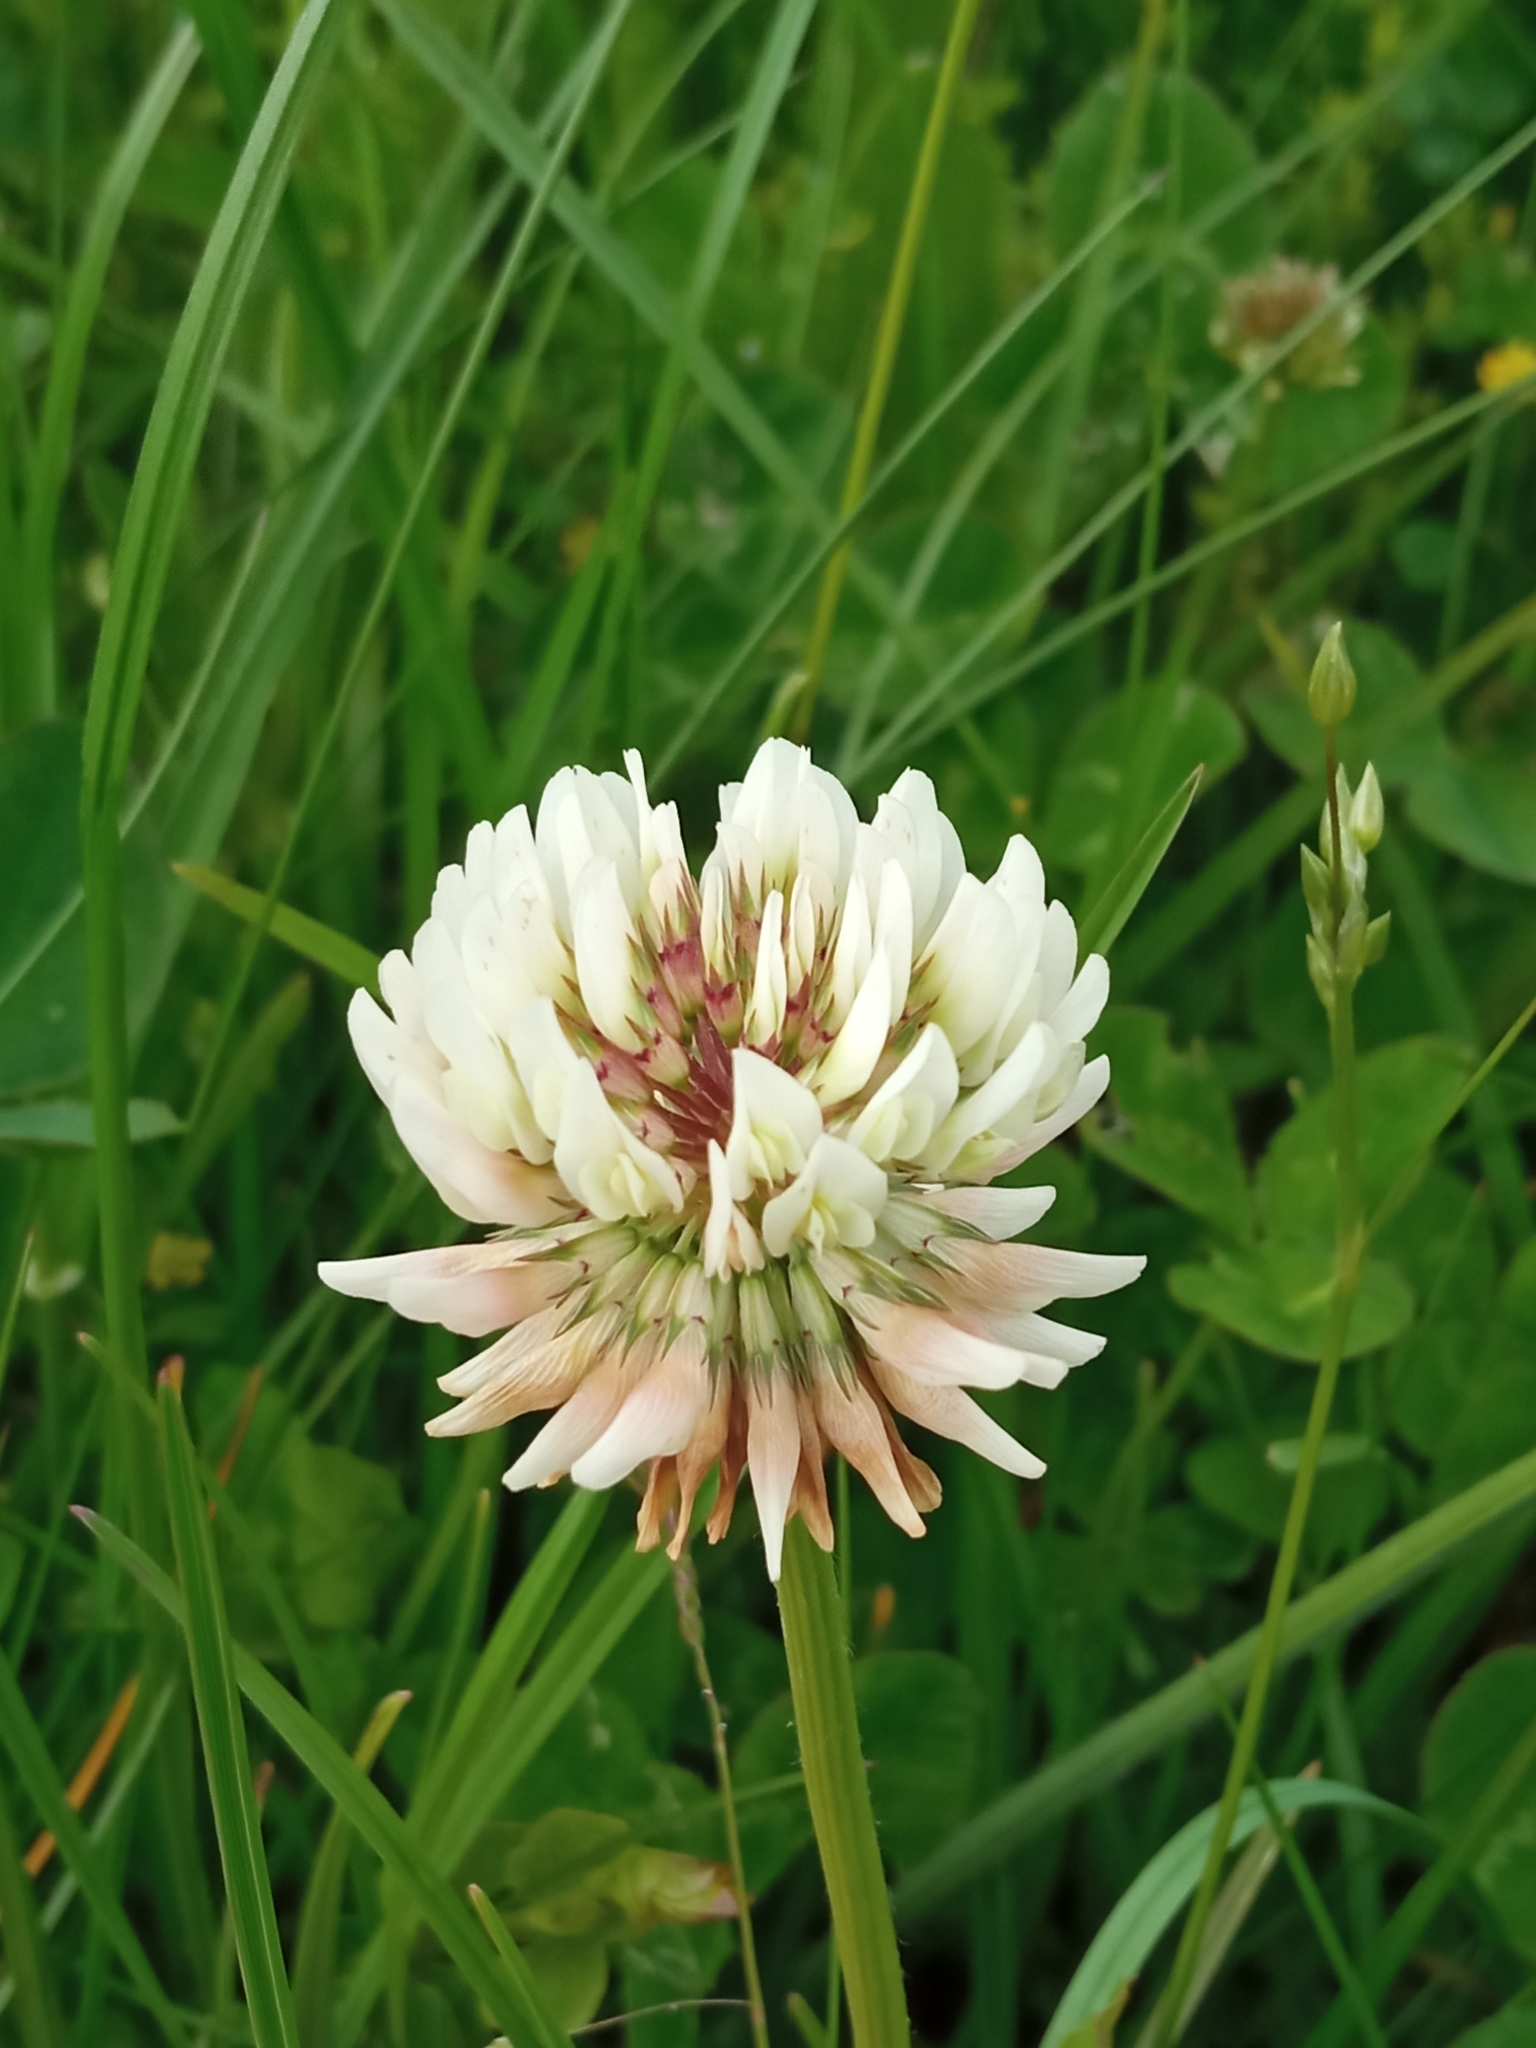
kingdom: Plantae
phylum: Tracheophyta
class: Magnoliopsida
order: Fabales
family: Fabaceae
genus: Trifolium
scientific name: Trifolium repens
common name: White clover
